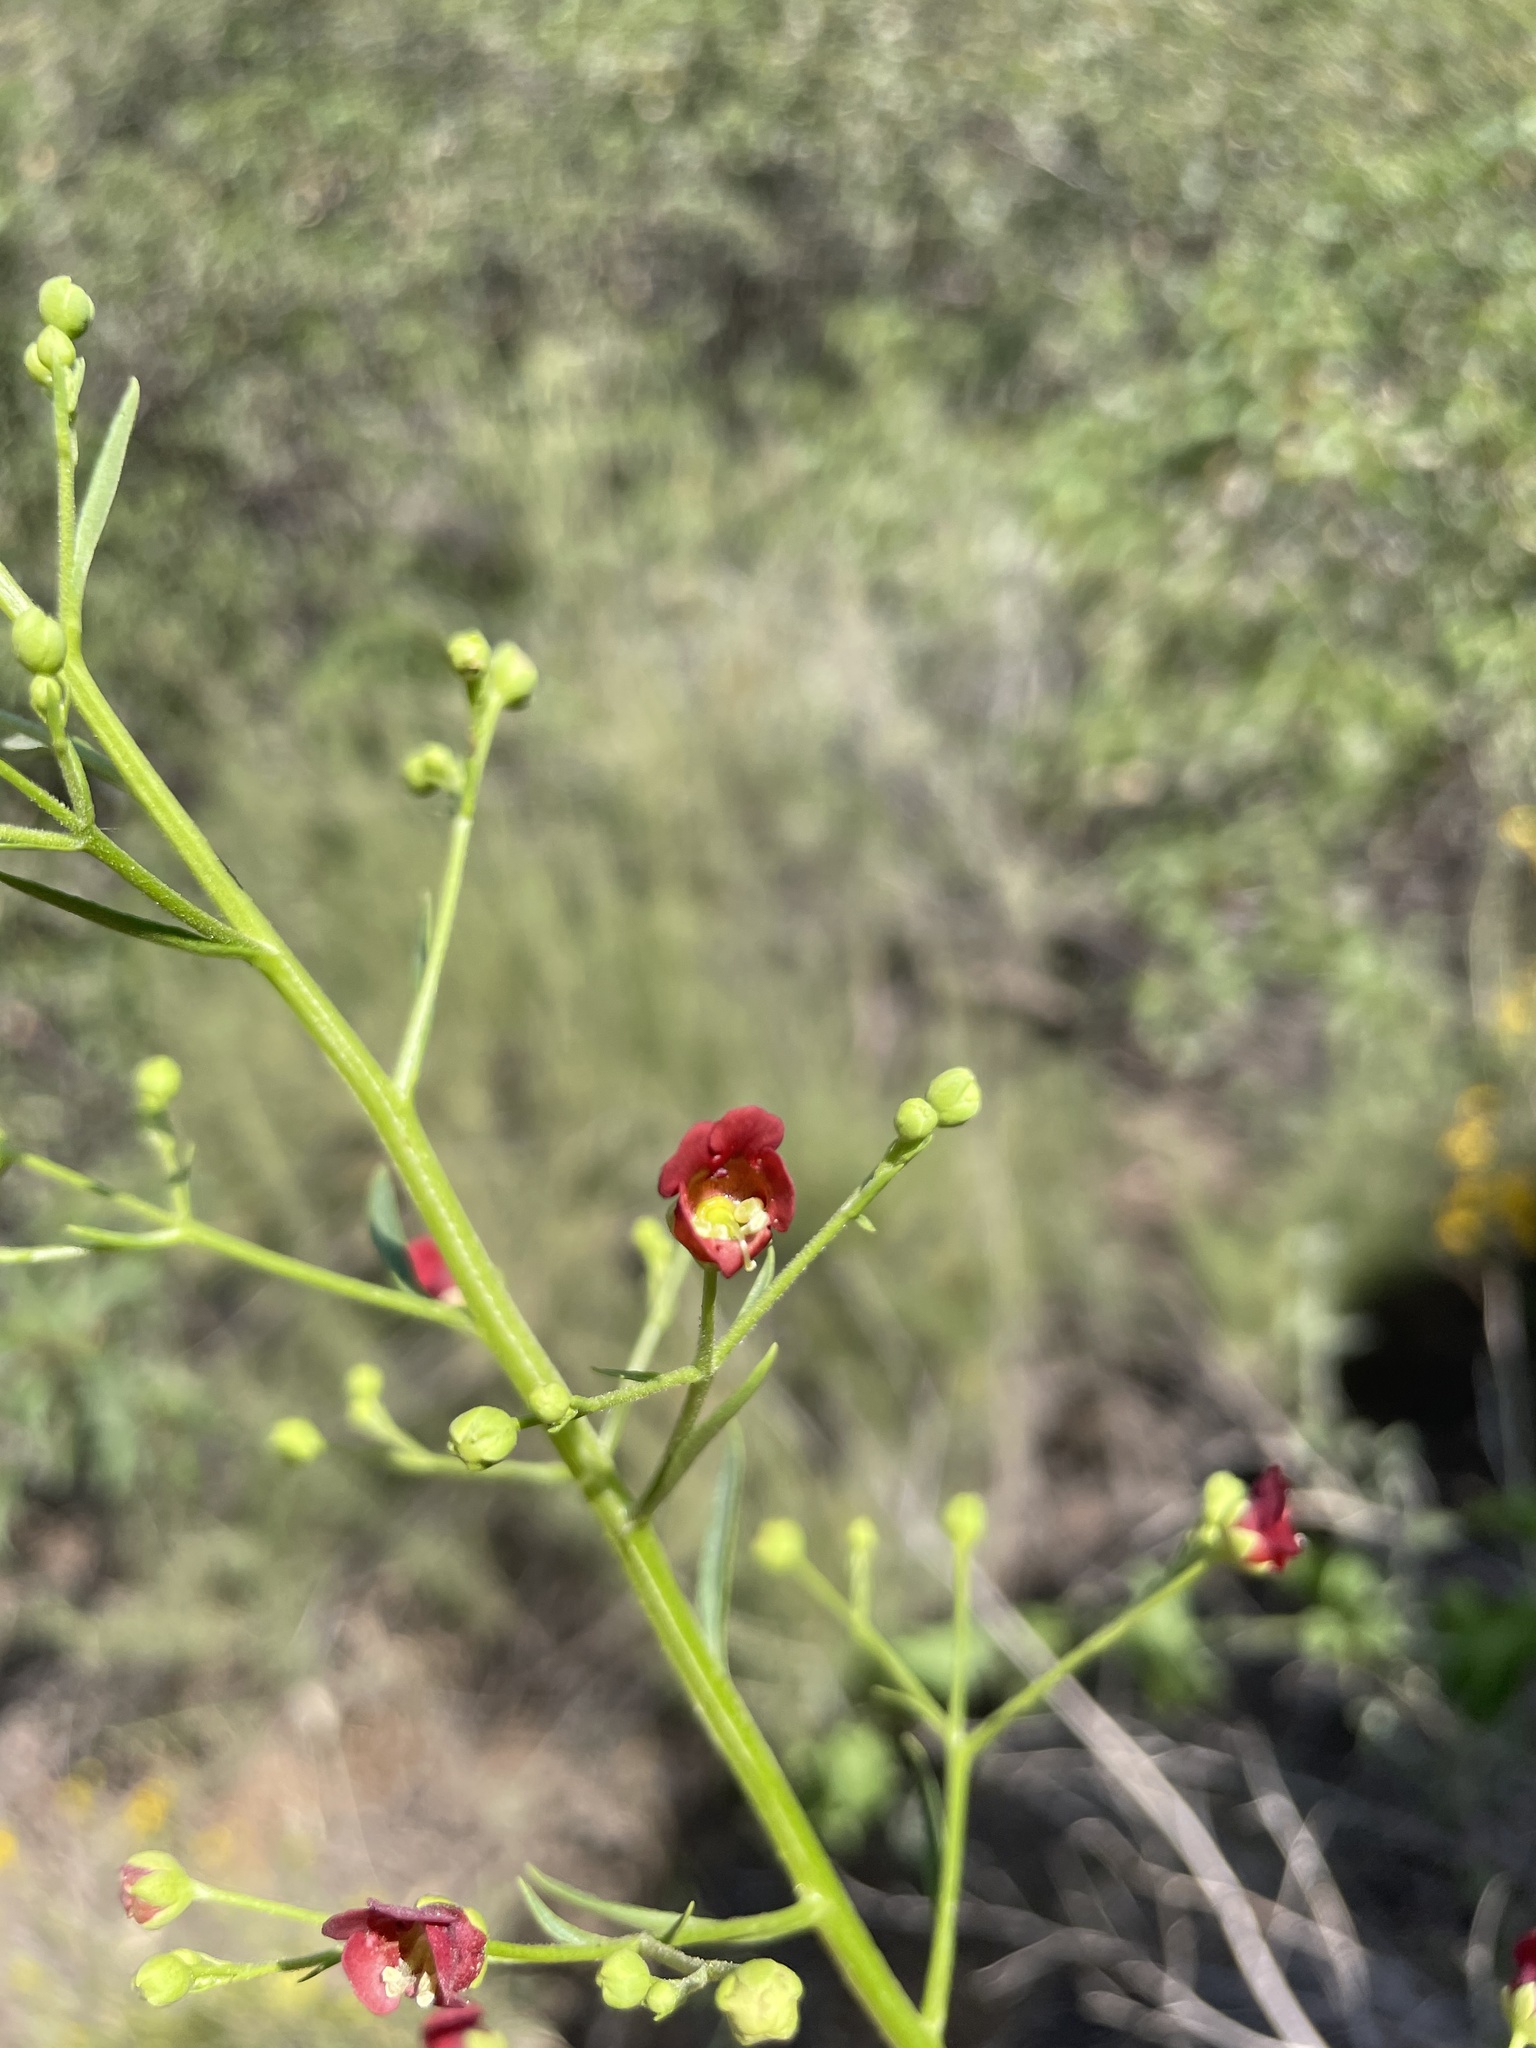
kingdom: Plantae
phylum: Tracheophyta
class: Magnoliopsida
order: Lamiales
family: Scrophulariaceae
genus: Scrophularia
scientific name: Scrophularia californica
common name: California figwort
